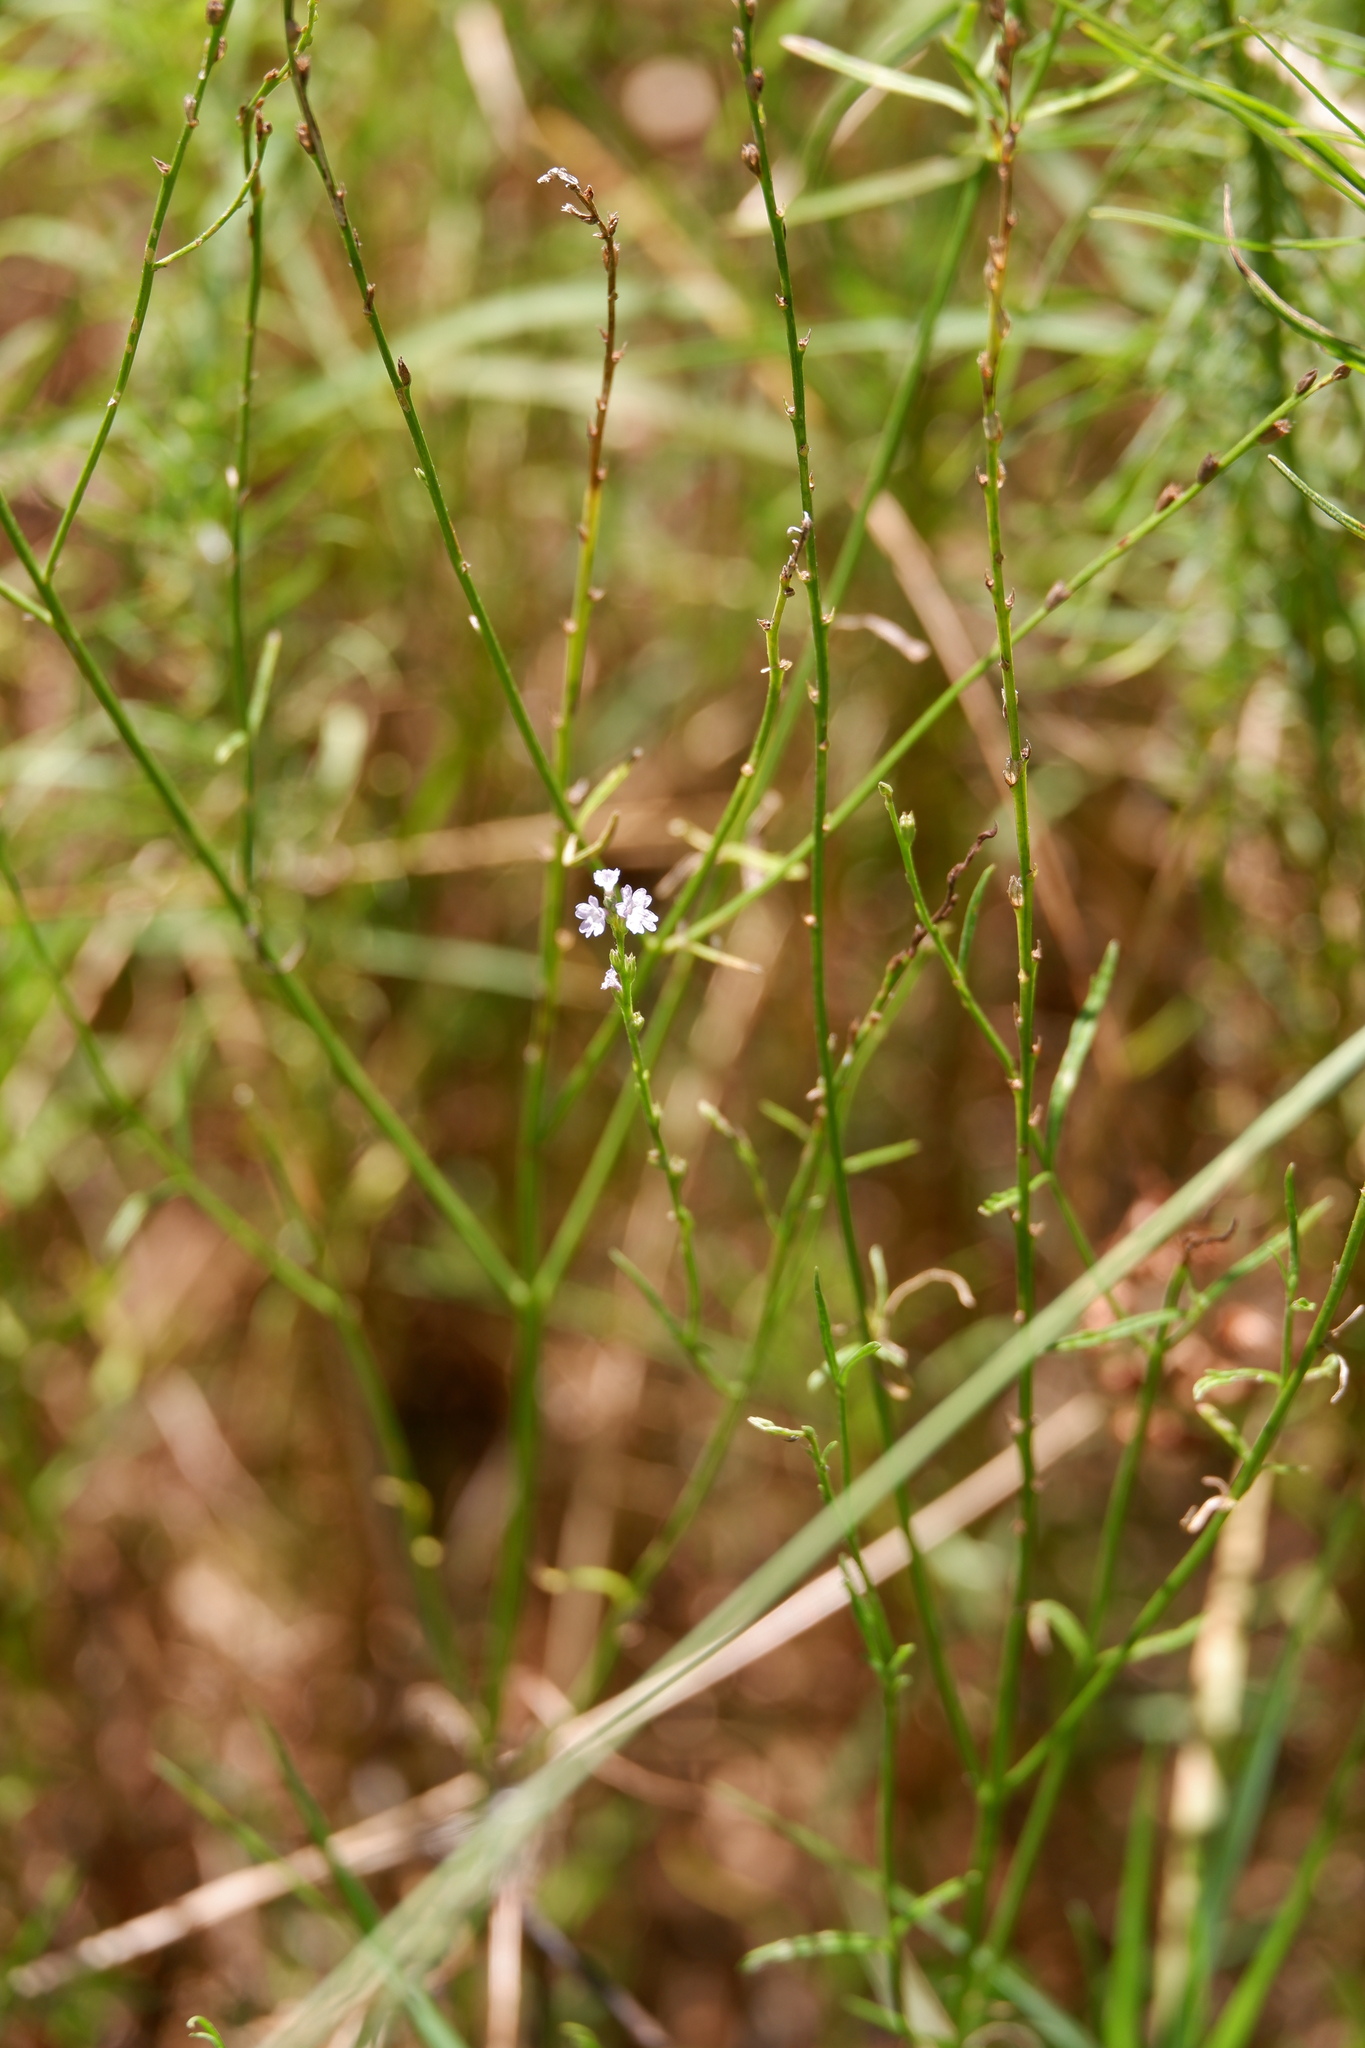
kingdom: Plantae
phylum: Tracheophyta
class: Magnoliopsida
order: Lamiales
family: Verbenaceae
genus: Verbena
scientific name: Verbena halei
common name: Texas vervain
